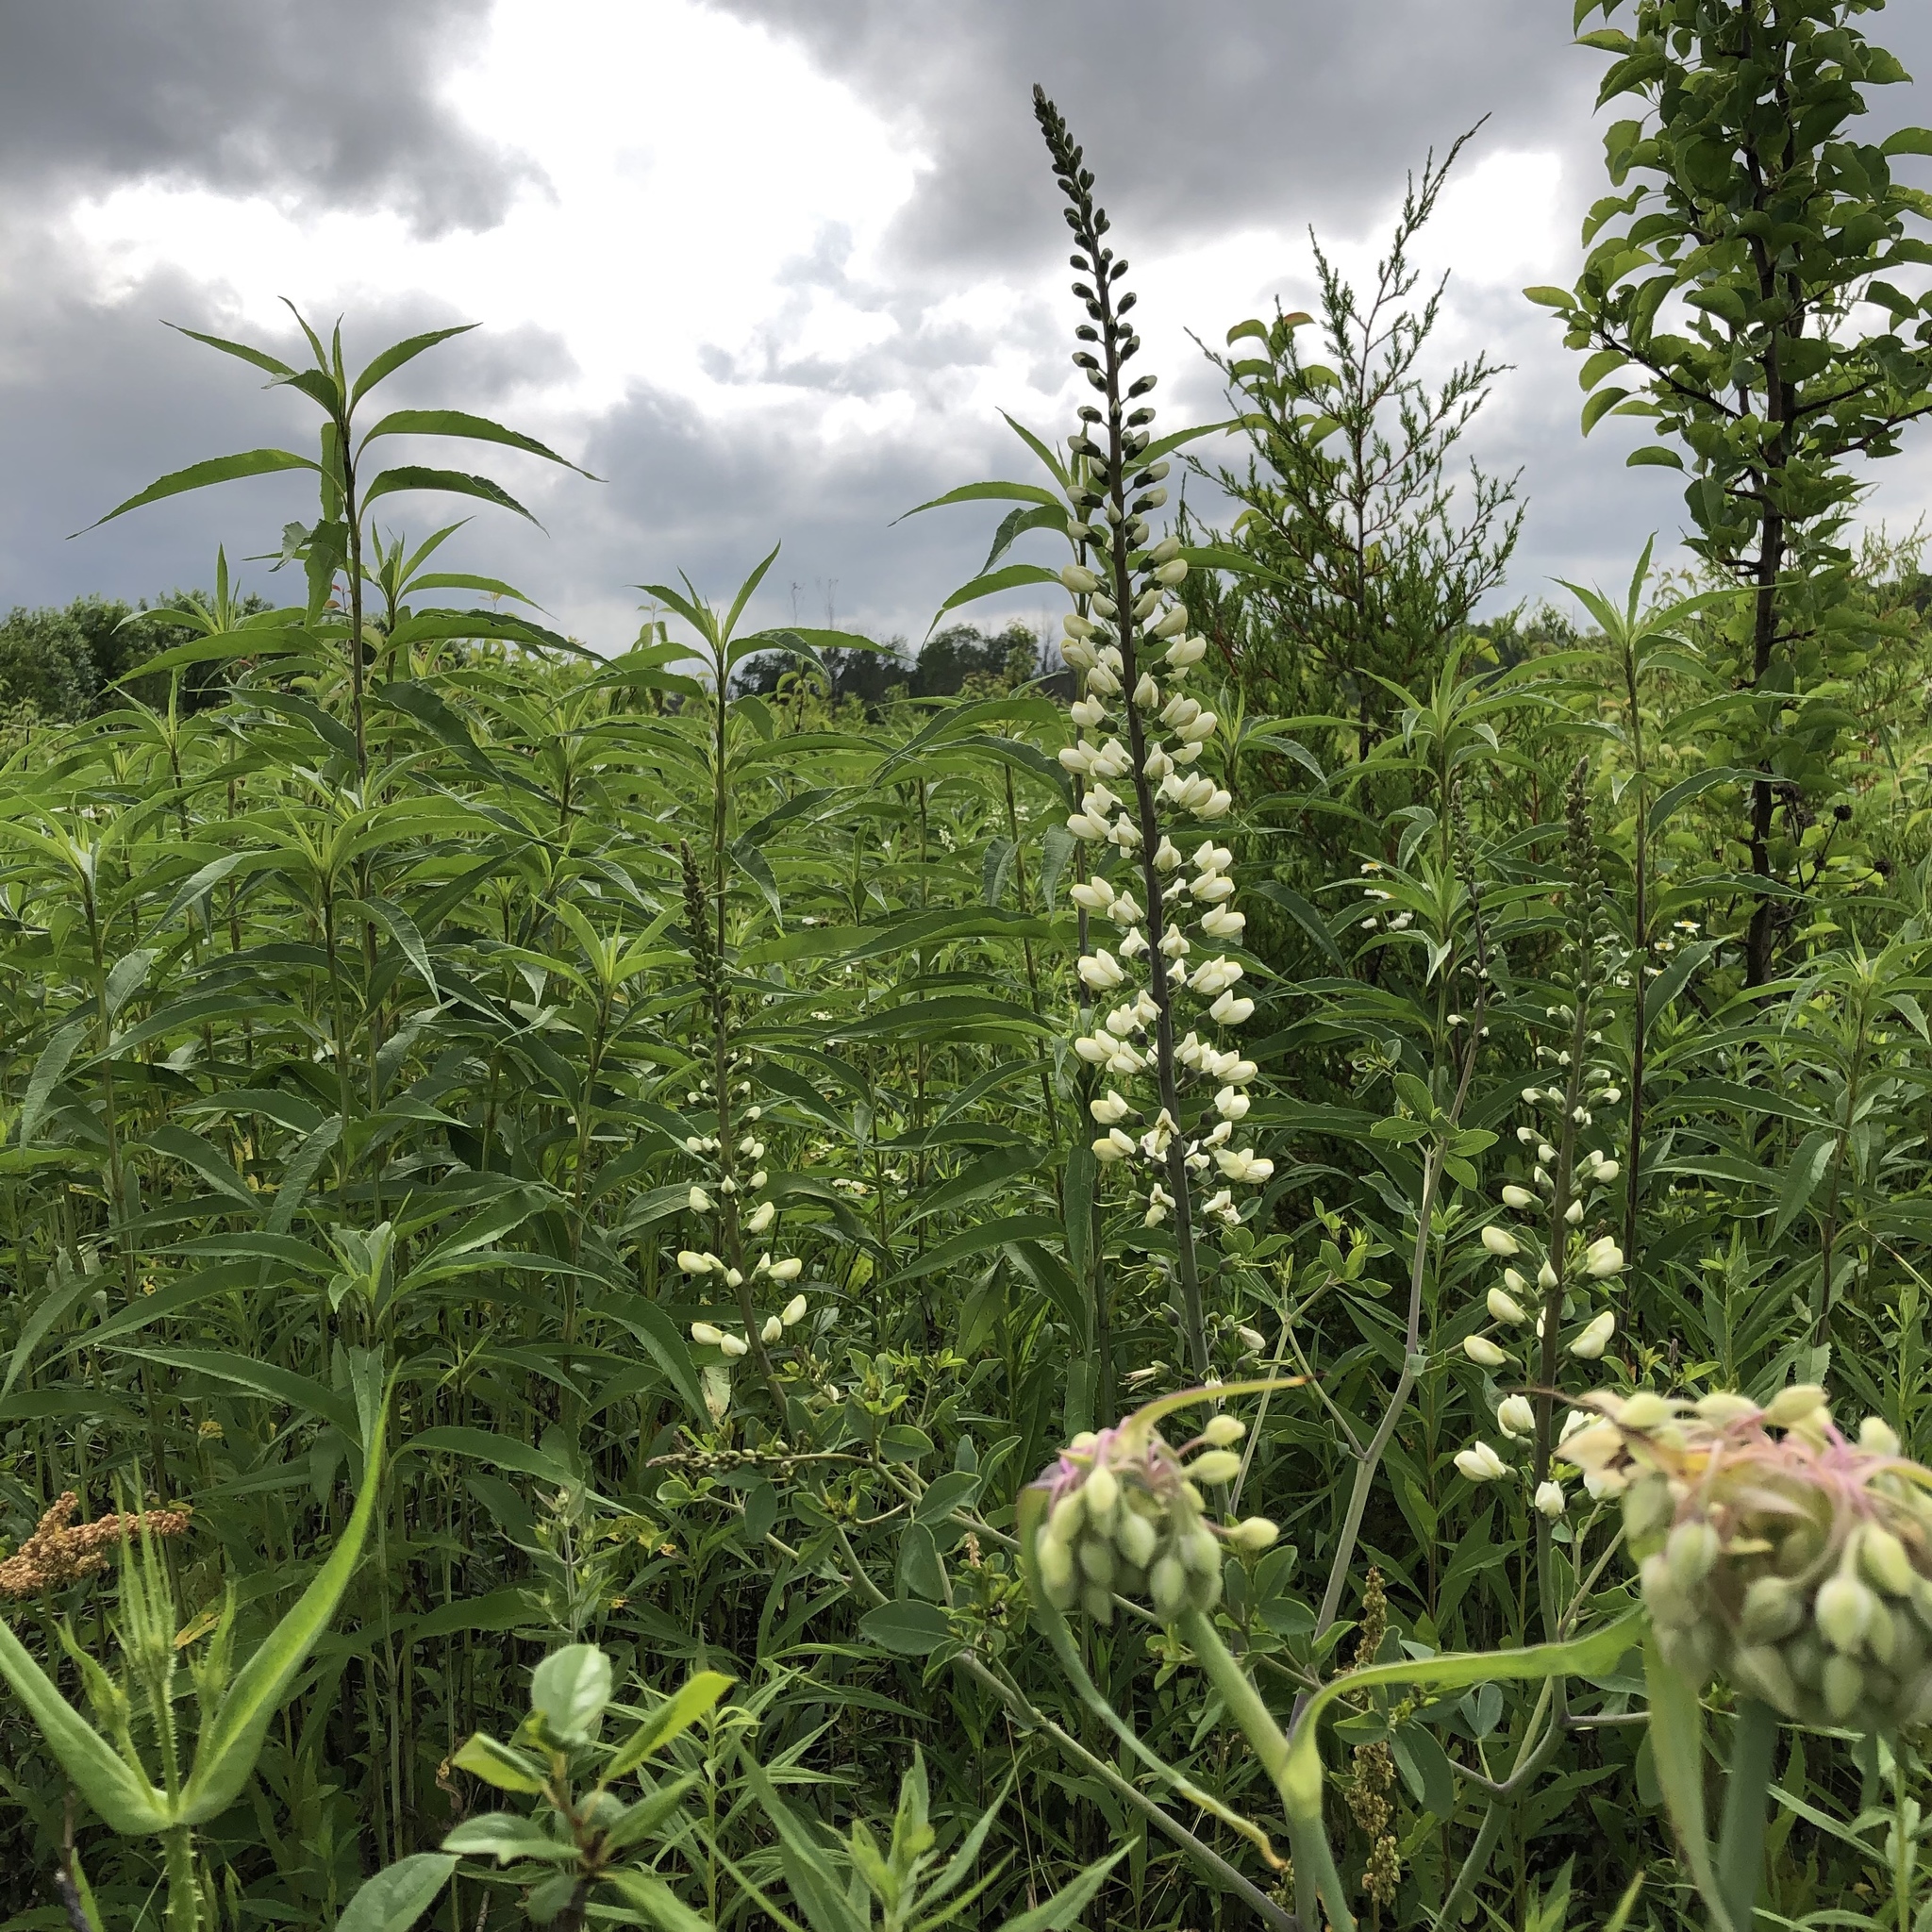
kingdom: Plantae
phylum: Tracheophyta
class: Magnoliopsida
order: Fabales
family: Fabaceae
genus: Baptisia
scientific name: Baptisia alba
